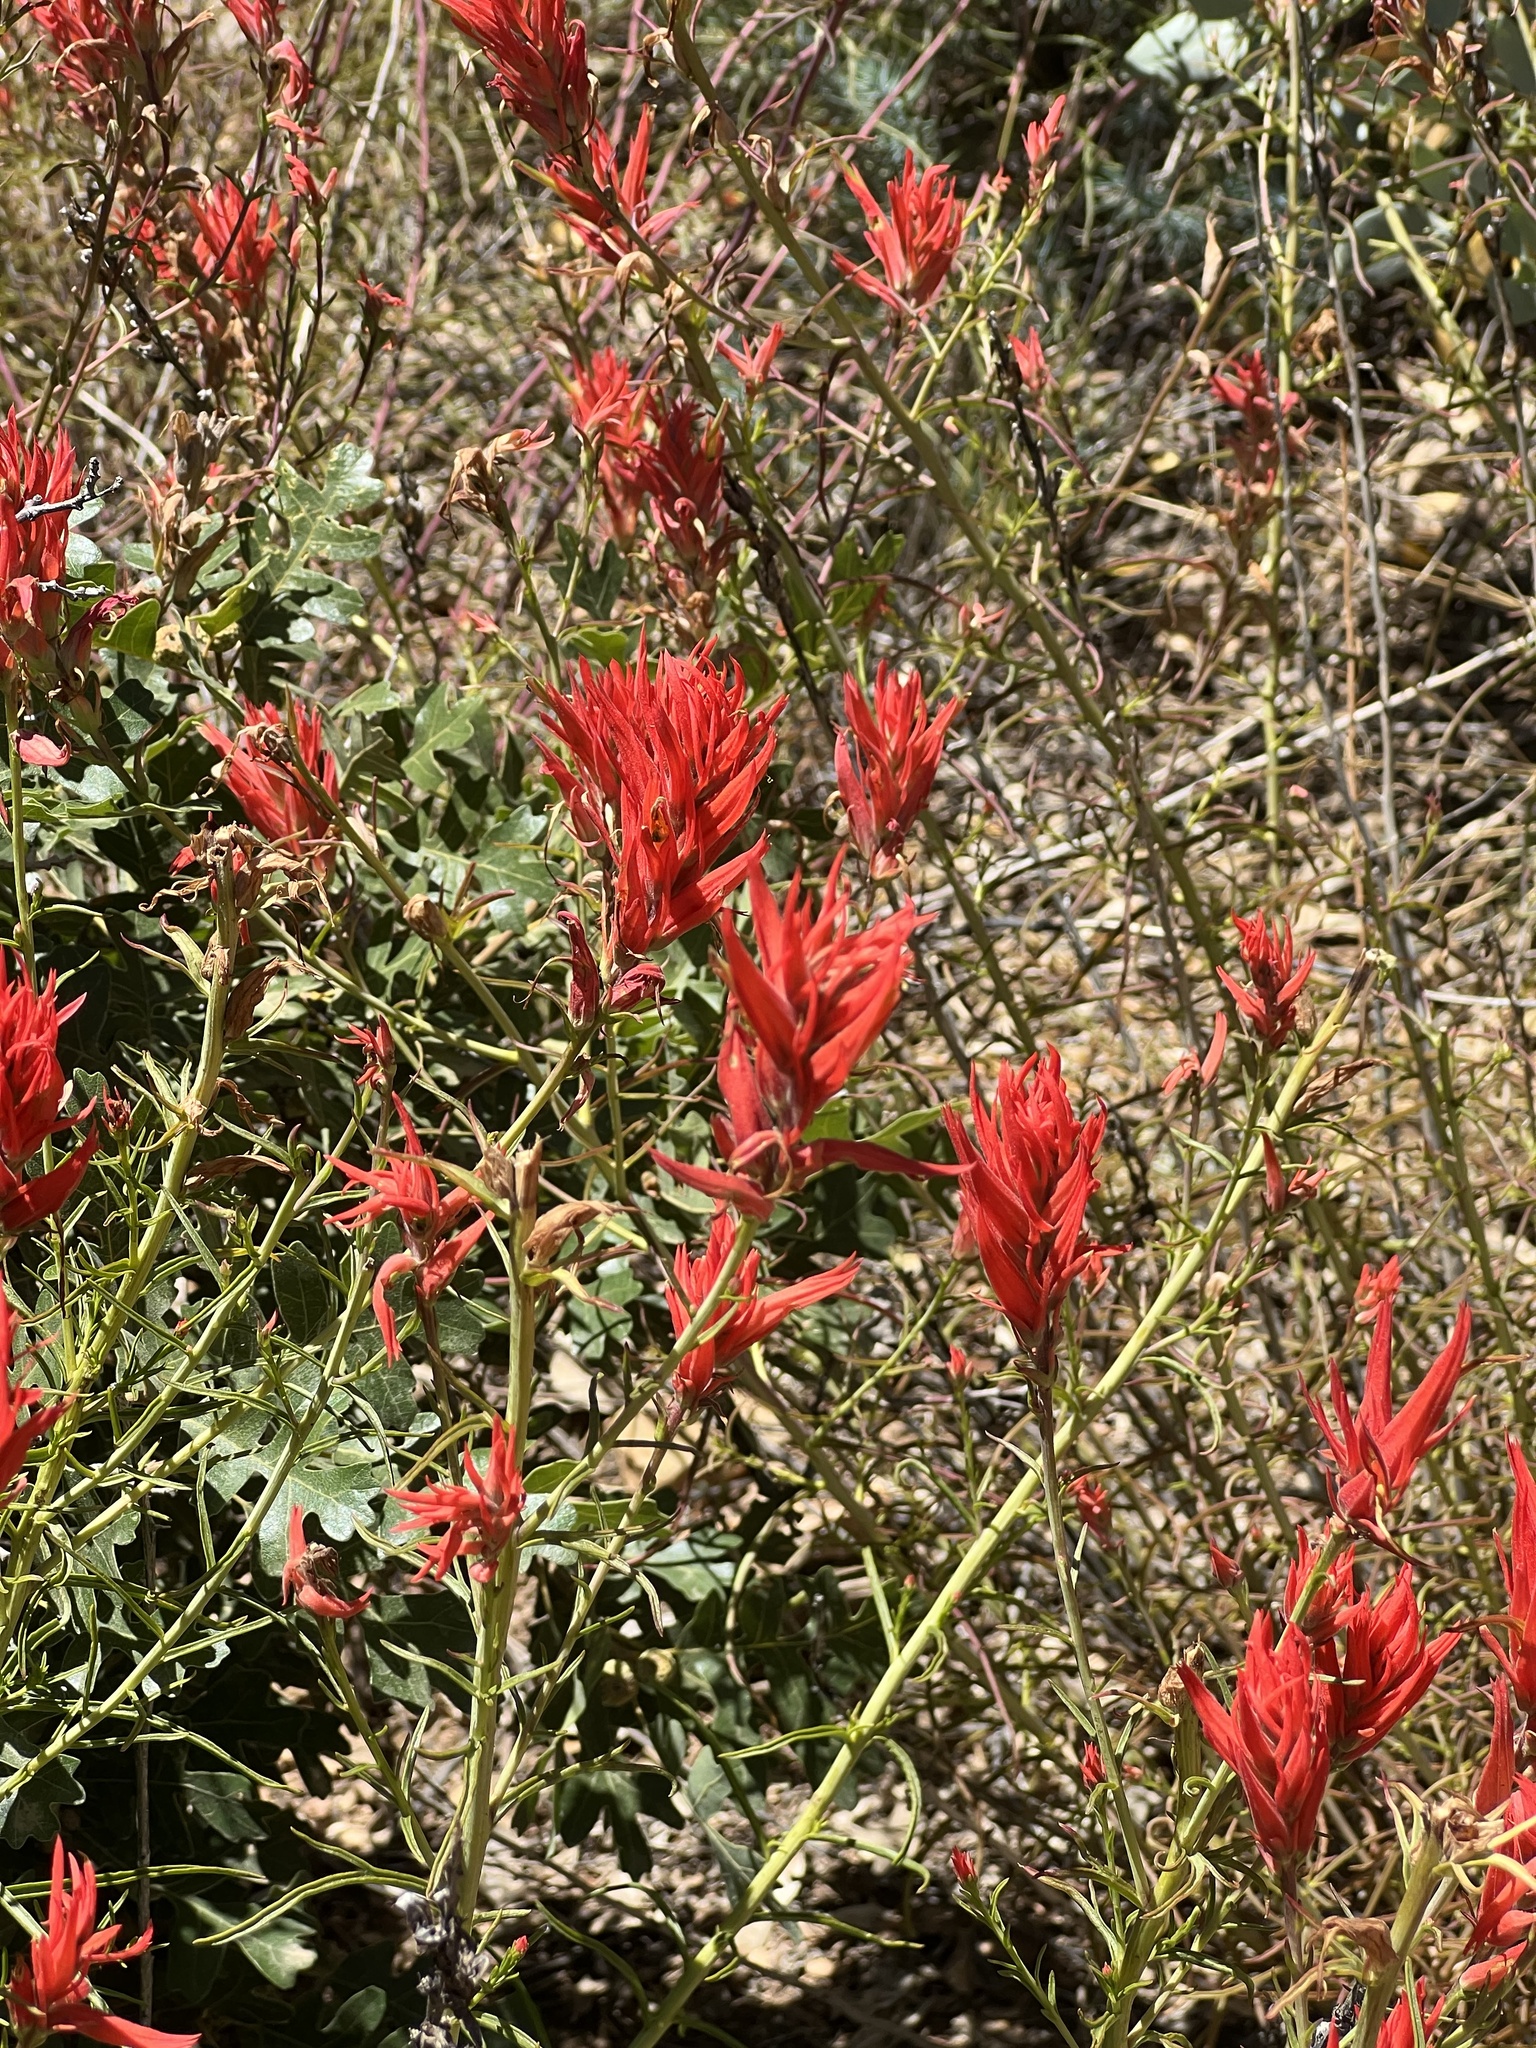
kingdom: Plantae
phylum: Tracheophyta
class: Magnoliopsida
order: Lamiales
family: Orobanchaceae
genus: Castilleja
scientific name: Castilleja linariifolia
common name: Wyoming paintbrush
